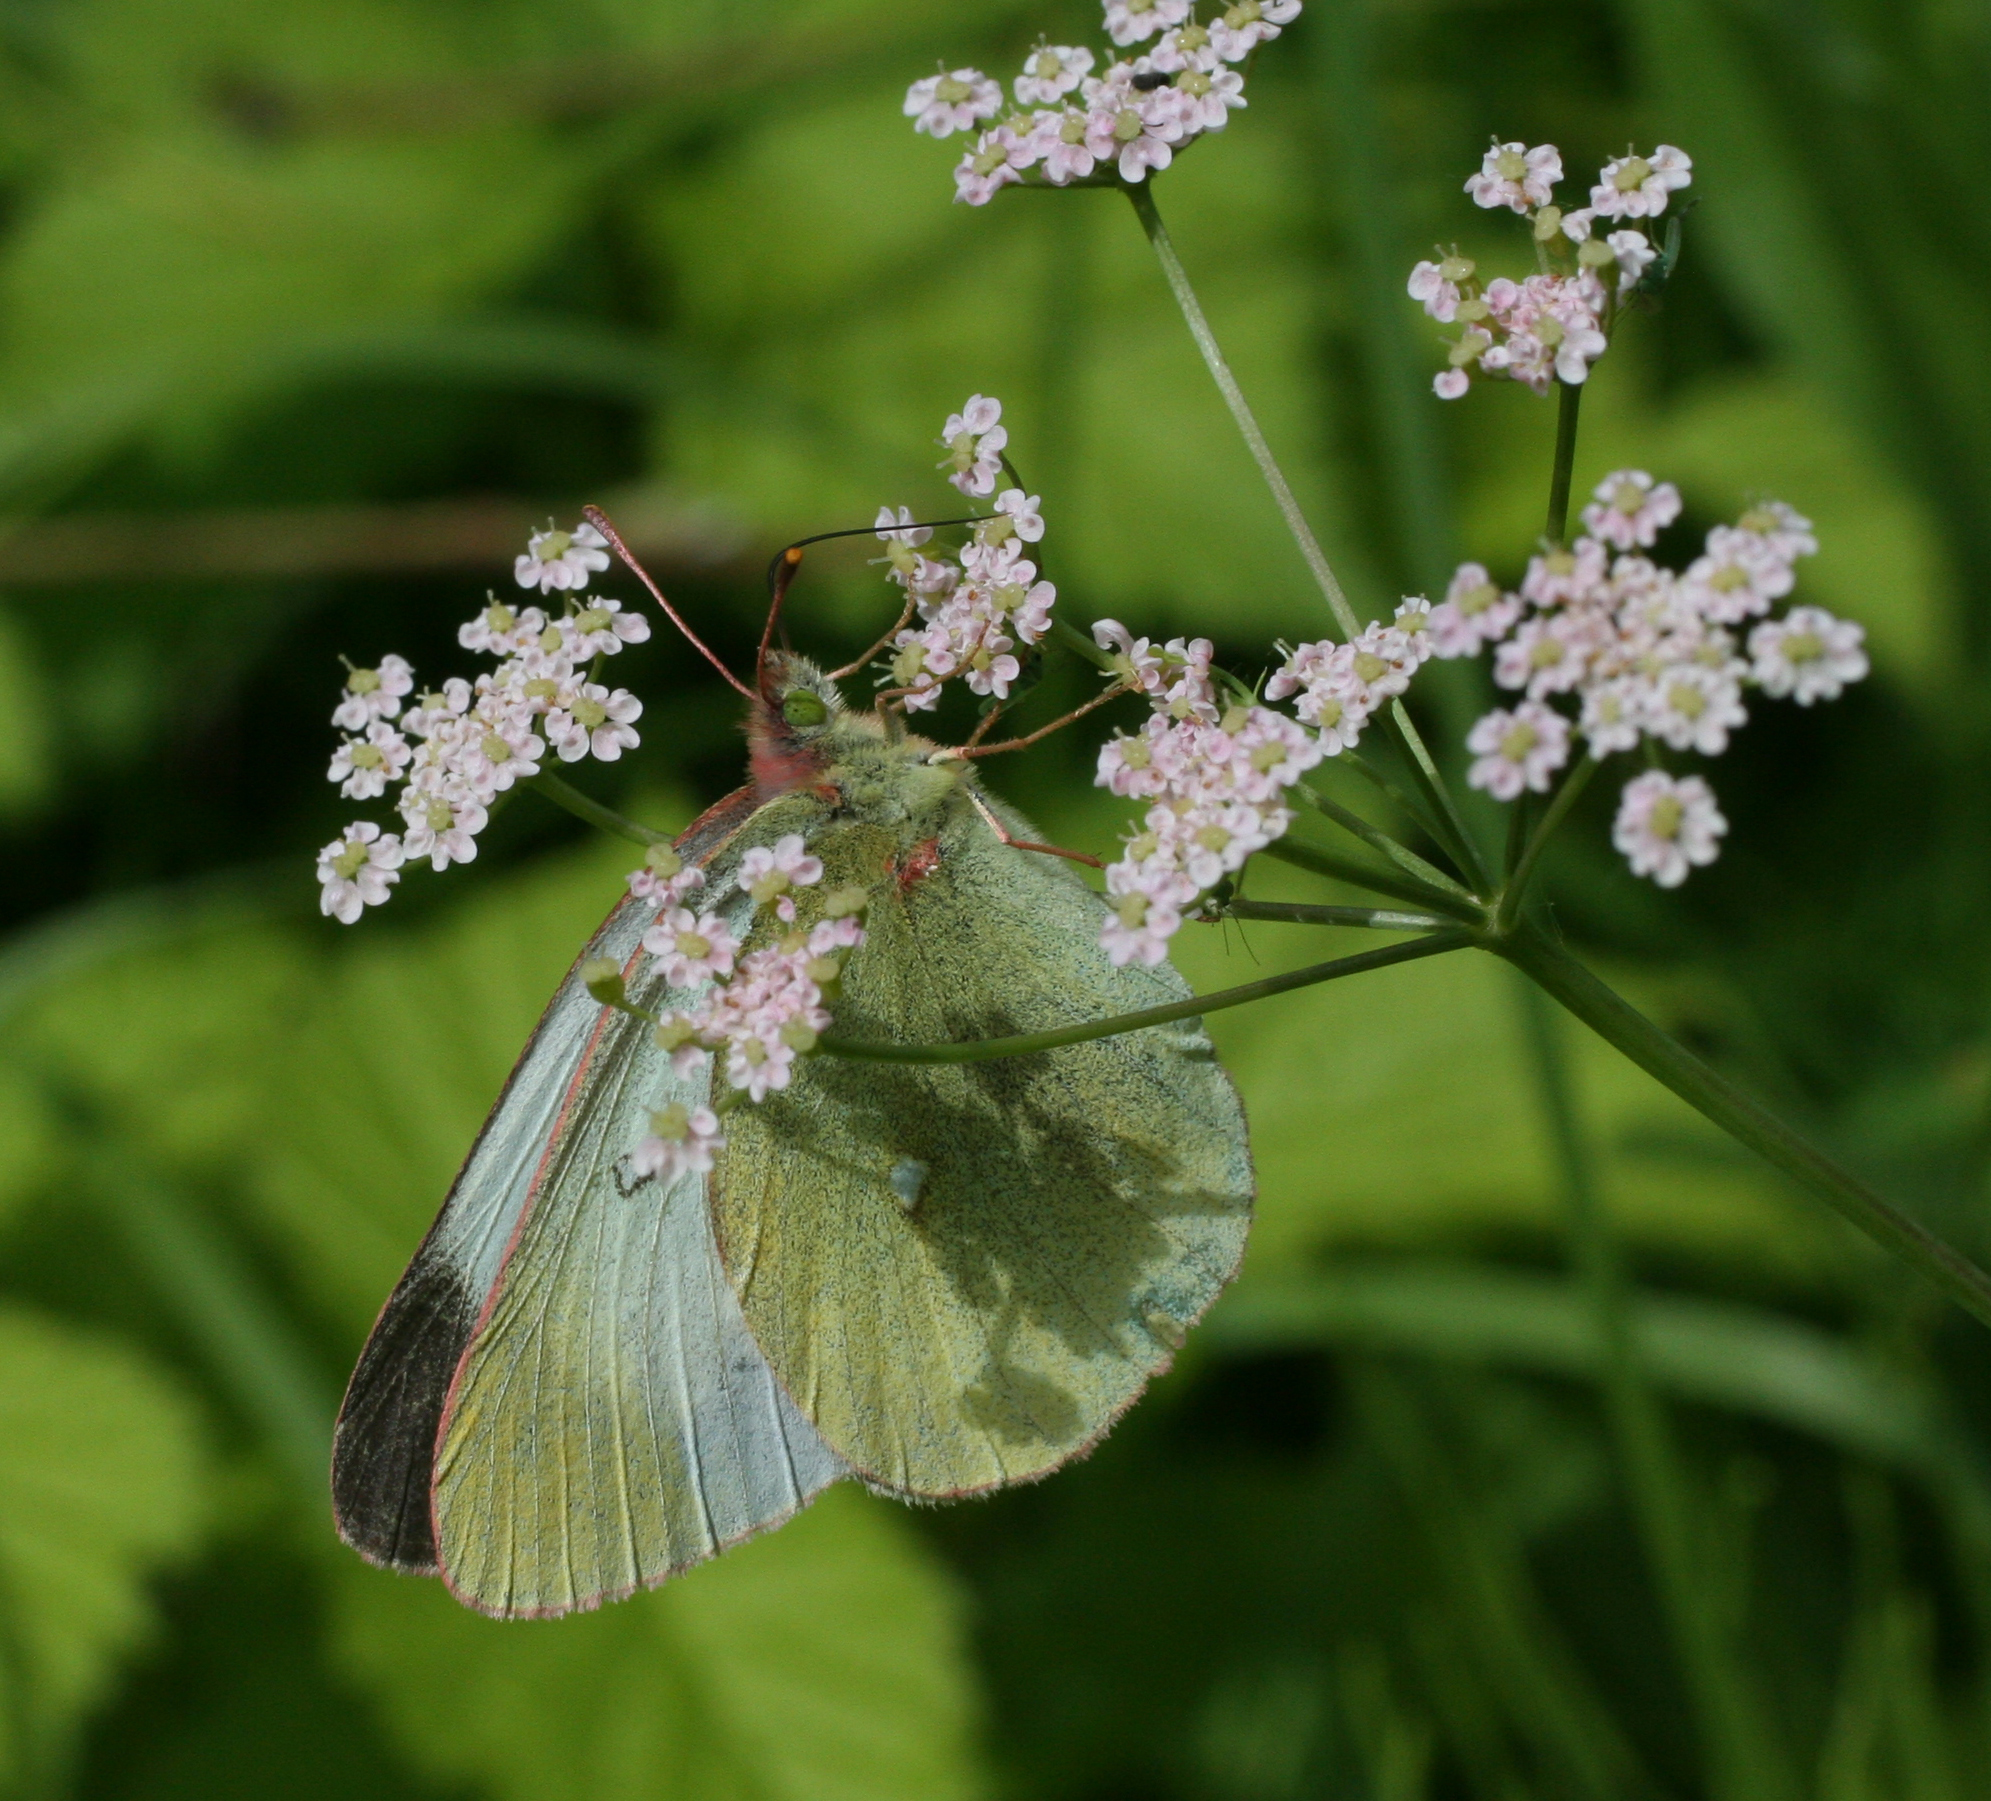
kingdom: Animalia
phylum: Arthropoda
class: Insecta
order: Lepidoptera
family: Pieridae
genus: Colias
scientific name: Colias palaeno
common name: Moorland clouded yellow
